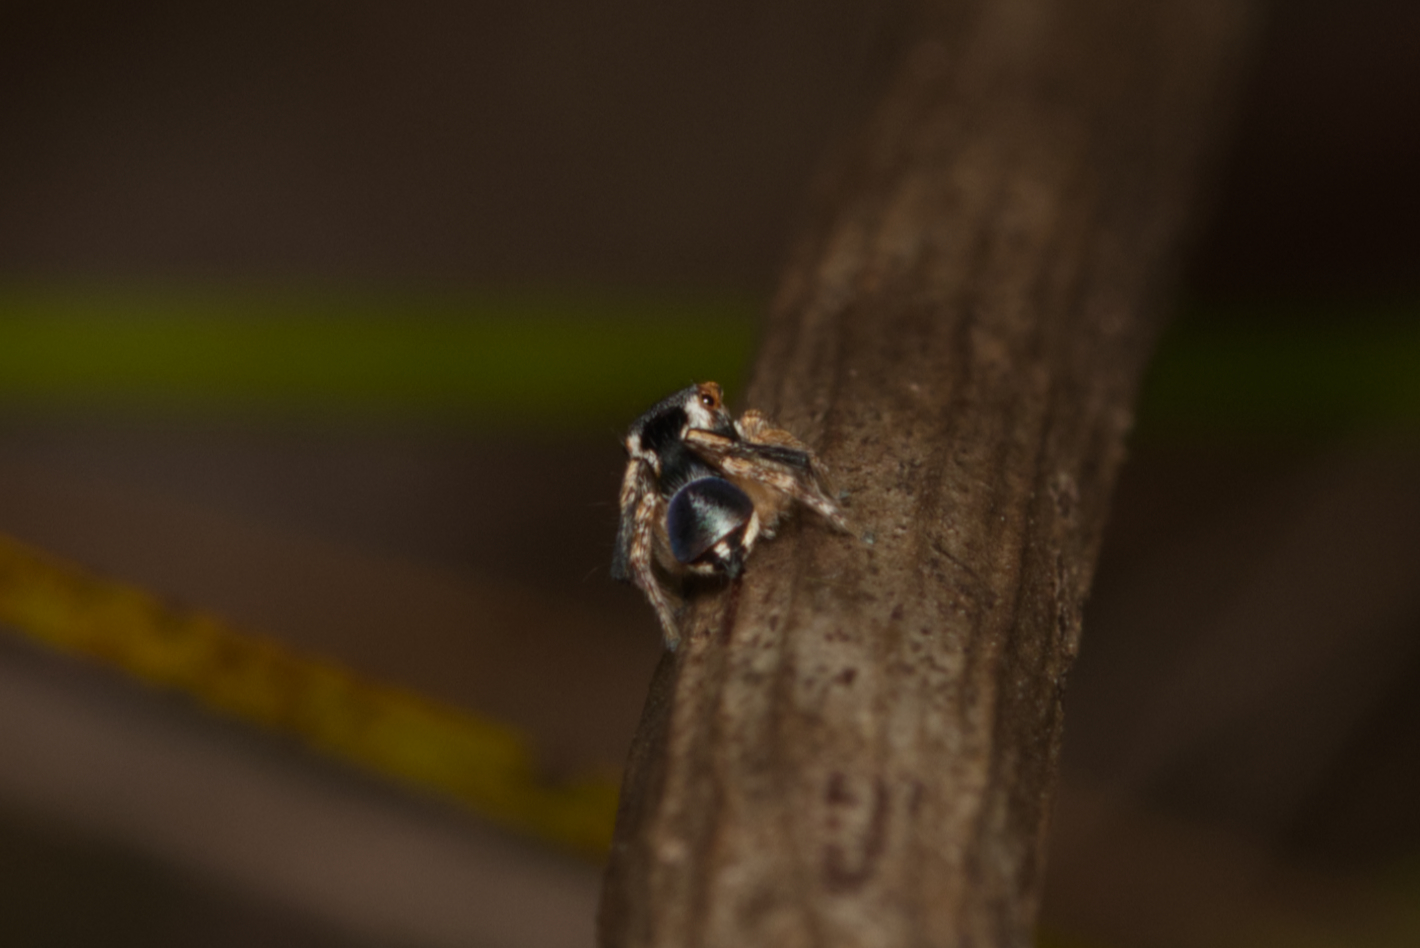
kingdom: Animalia
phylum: Arthropoda
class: Arachnida
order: Araneae
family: Salticidae
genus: Maratus
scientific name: Maratus anomalus
